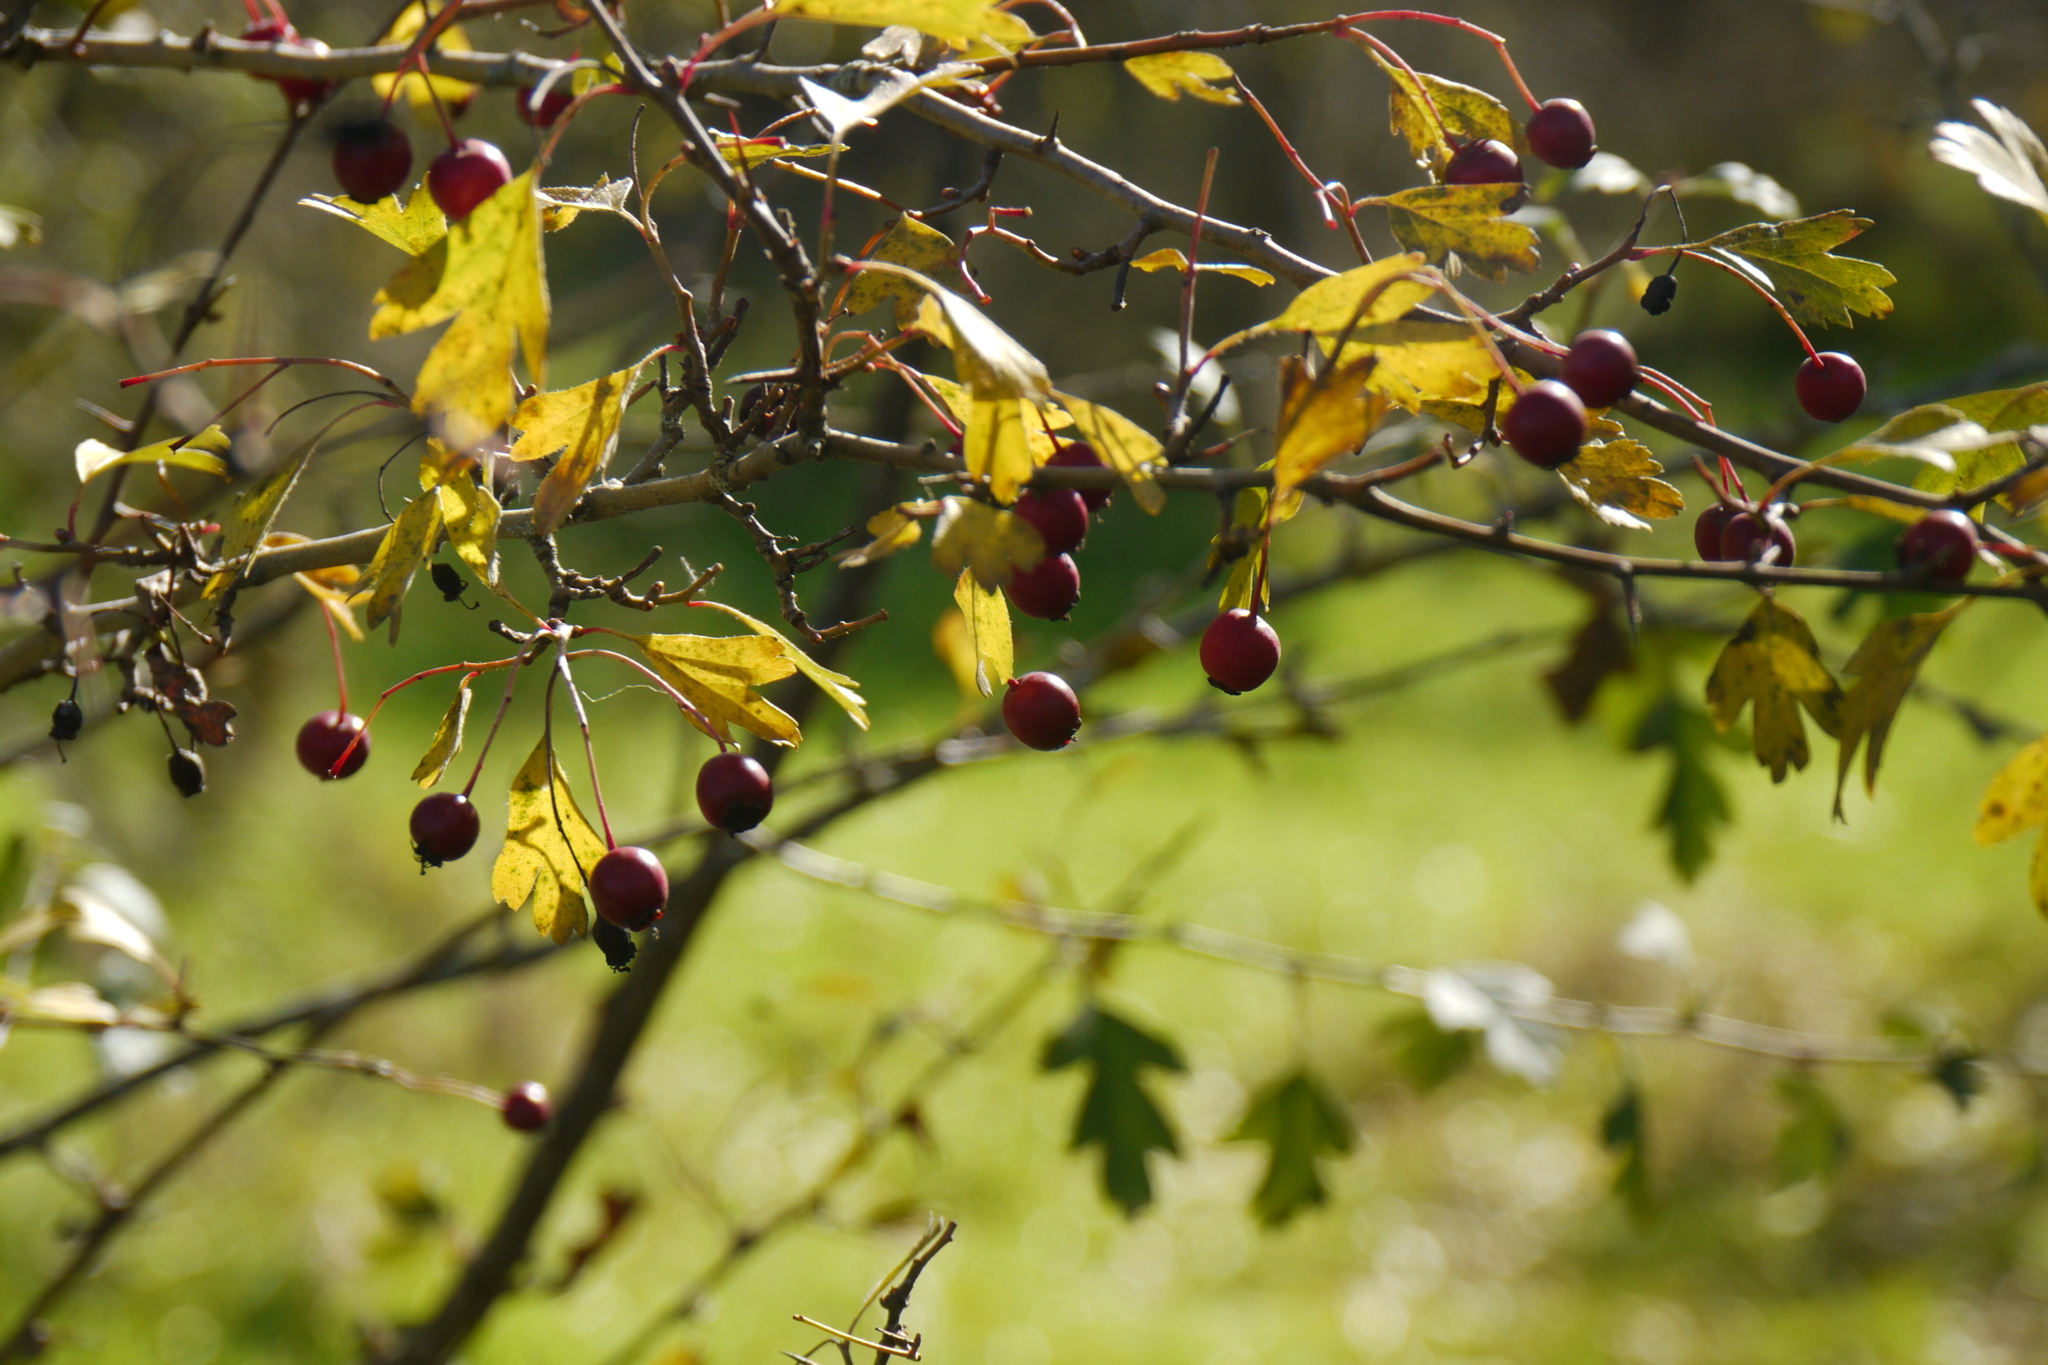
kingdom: Plantae
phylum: Tracheophyta
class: Magnoliopsida
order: Rosales
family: Rosaceae
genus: Crataegus
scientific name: Crataegus monogyna
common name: Hawthorn
